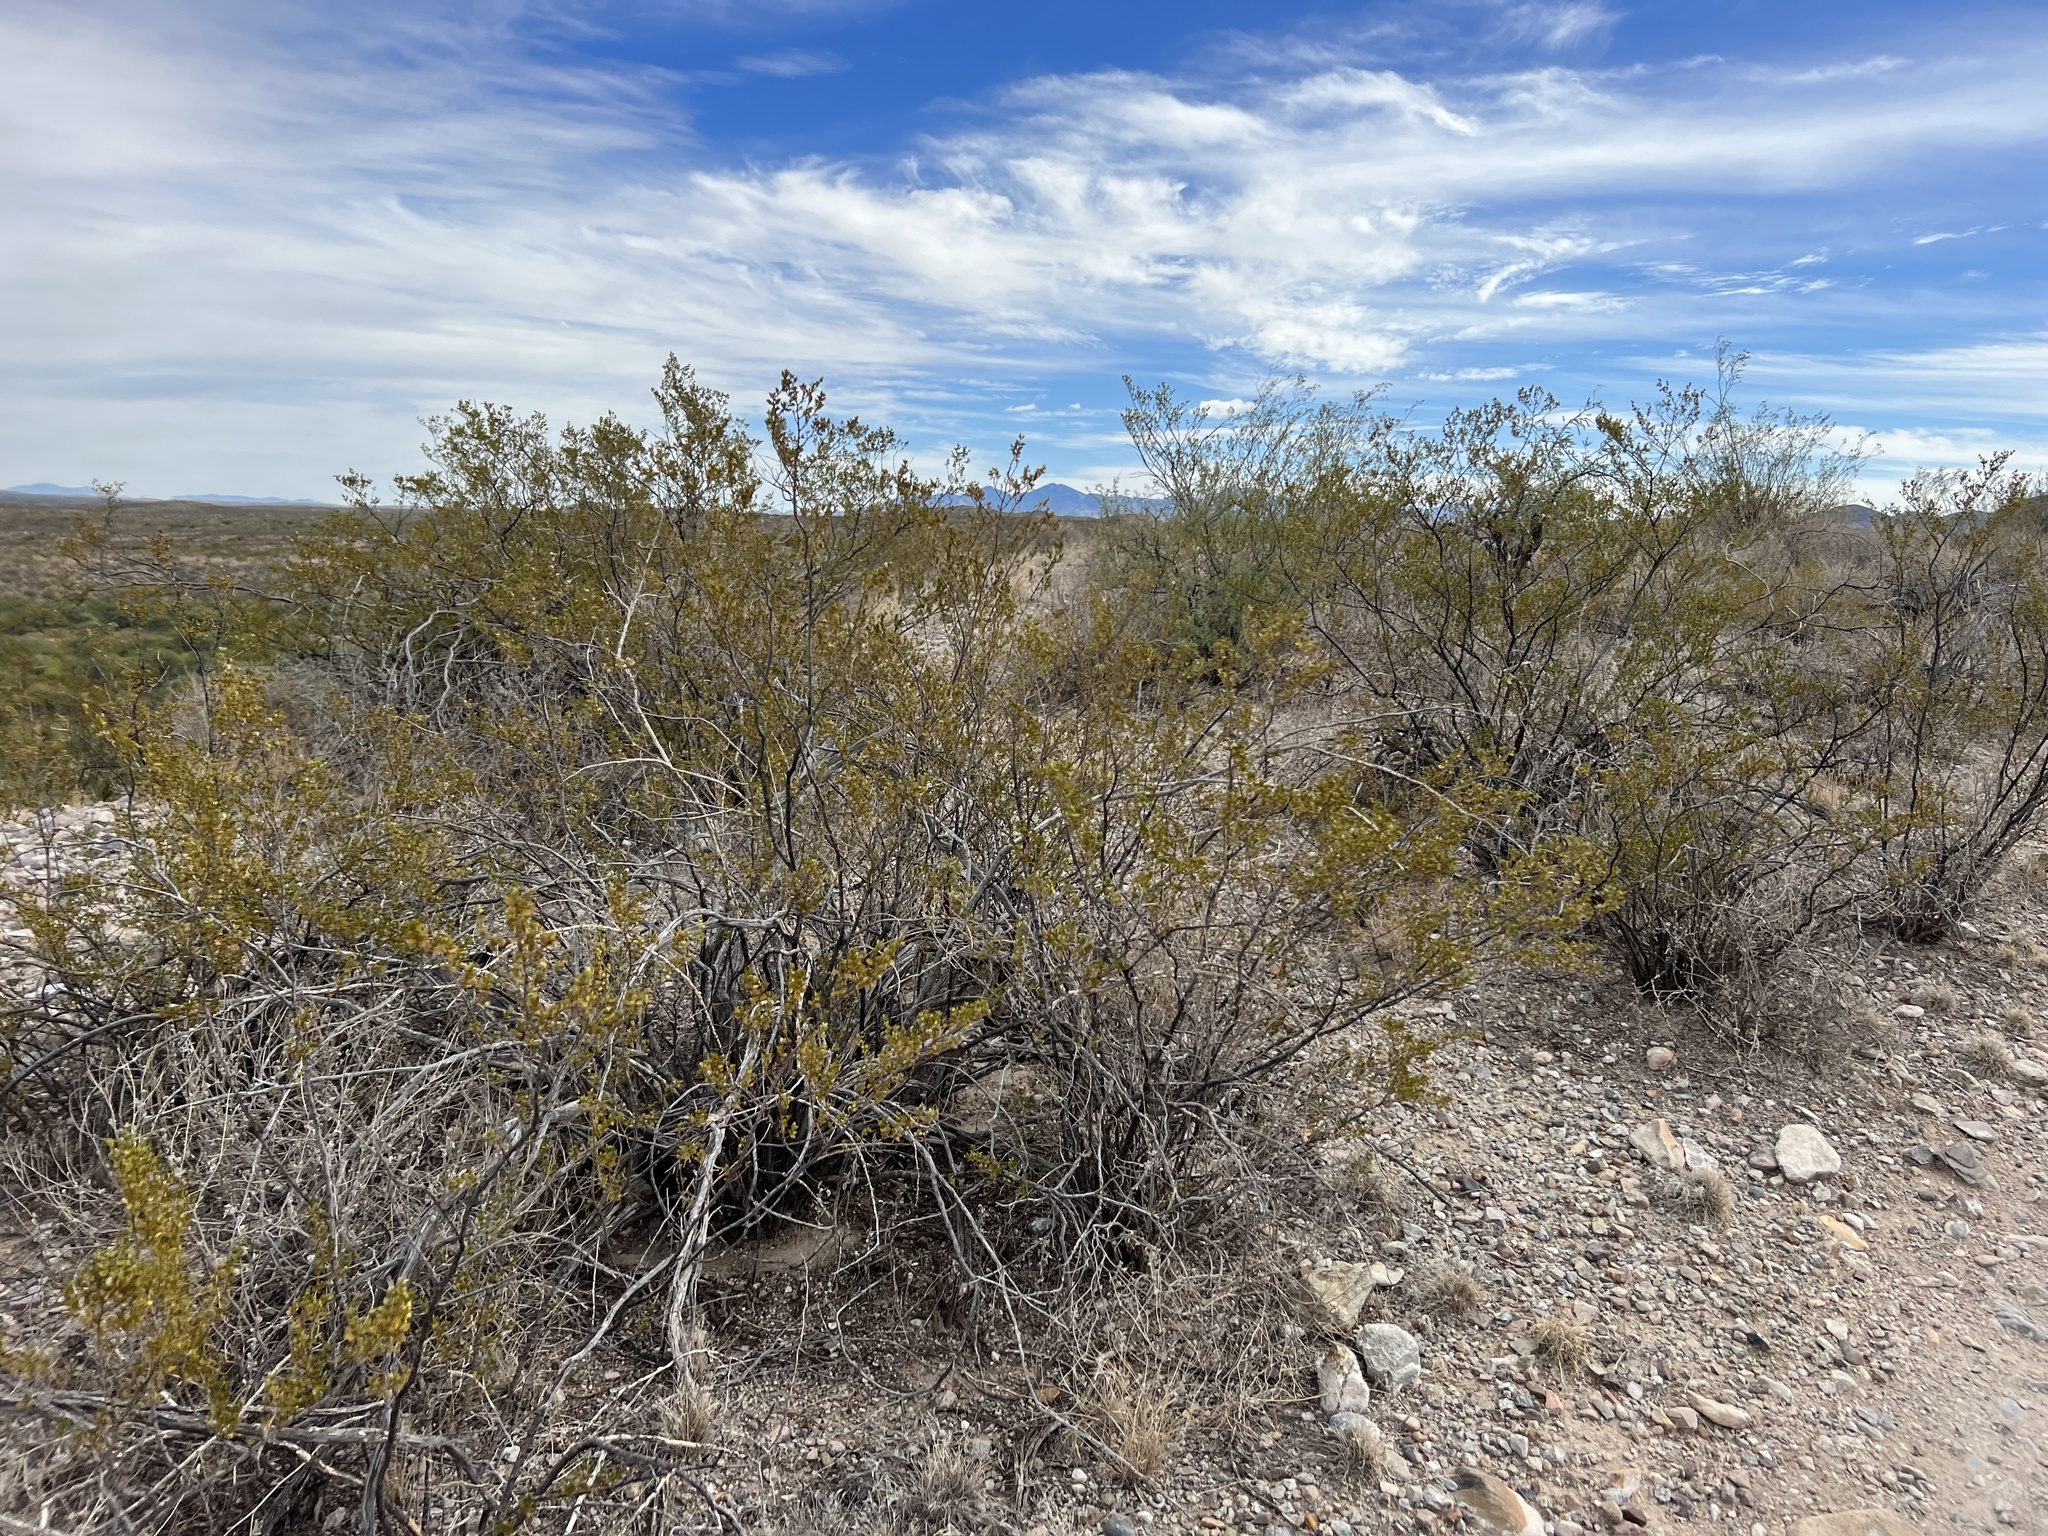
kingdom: Plantae
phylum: Tracheophyta
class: Magnoliopsida
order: Zygophyllales
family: Zygophyllaceae
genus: Larrea
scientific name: Larrea tridentata
